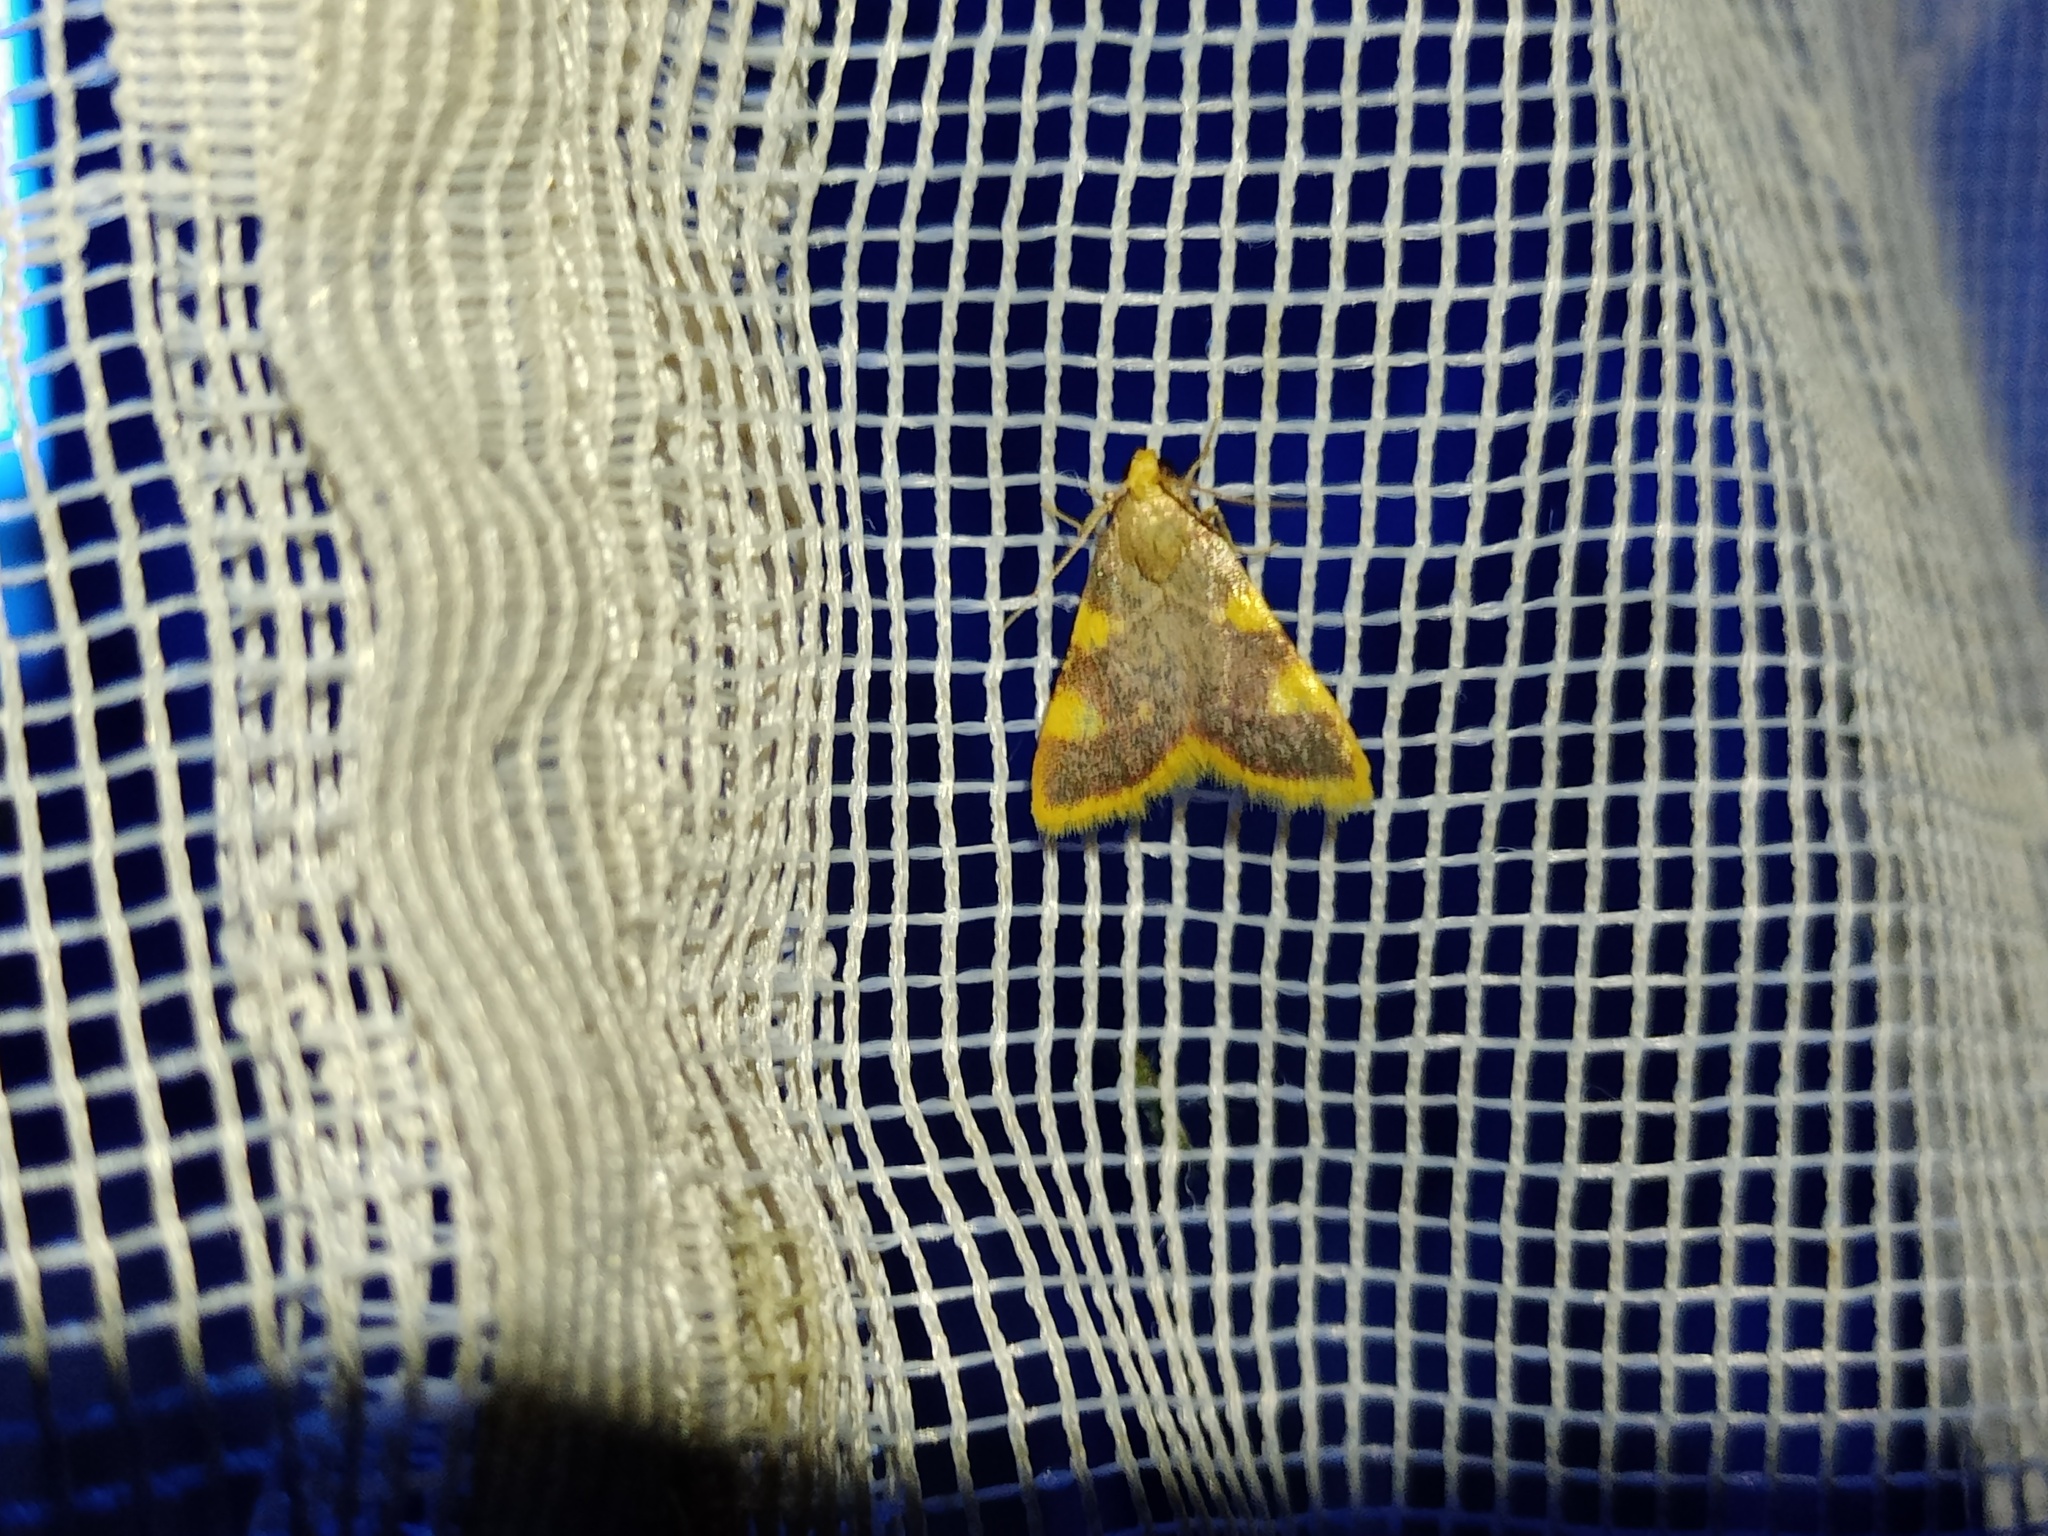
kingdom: Animalia
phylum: Arthropoda
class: Insecta
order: Lepidoptera
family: Pyralidae
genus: Hypsopygia
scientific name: Hypsopygia costalis
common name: Gold triangle
